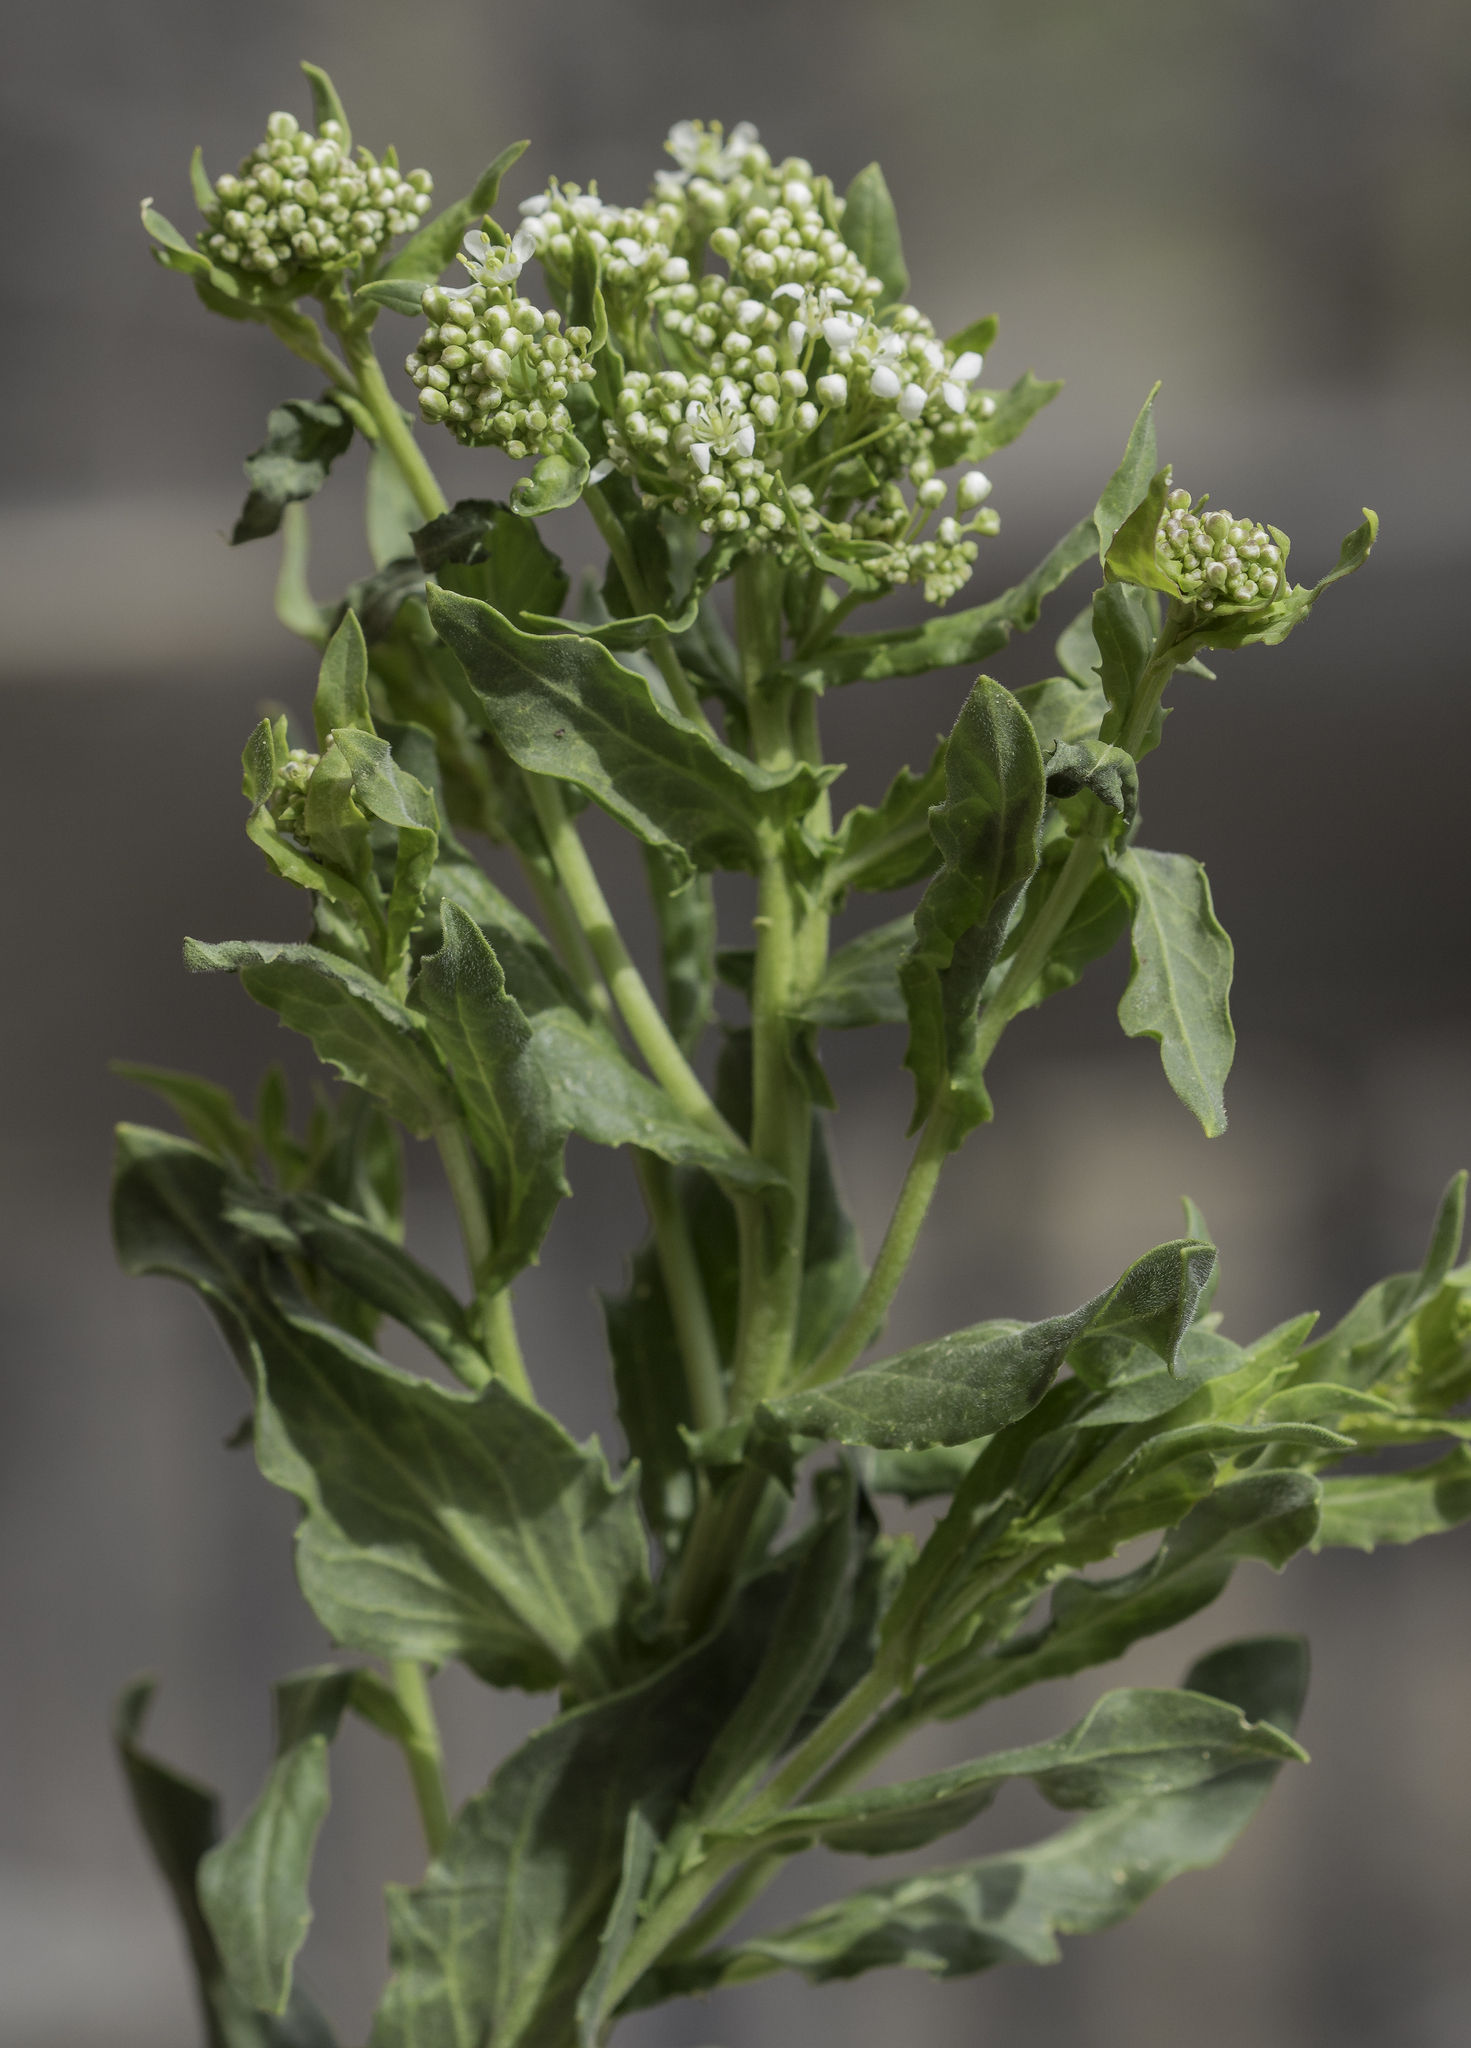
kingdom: Plantae
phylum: Tracheophyta
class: Magnoliopsida
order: Brassicales
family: Brassicaceae
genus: Lepidium
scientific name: Lepidium draba
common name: Hoary cress
